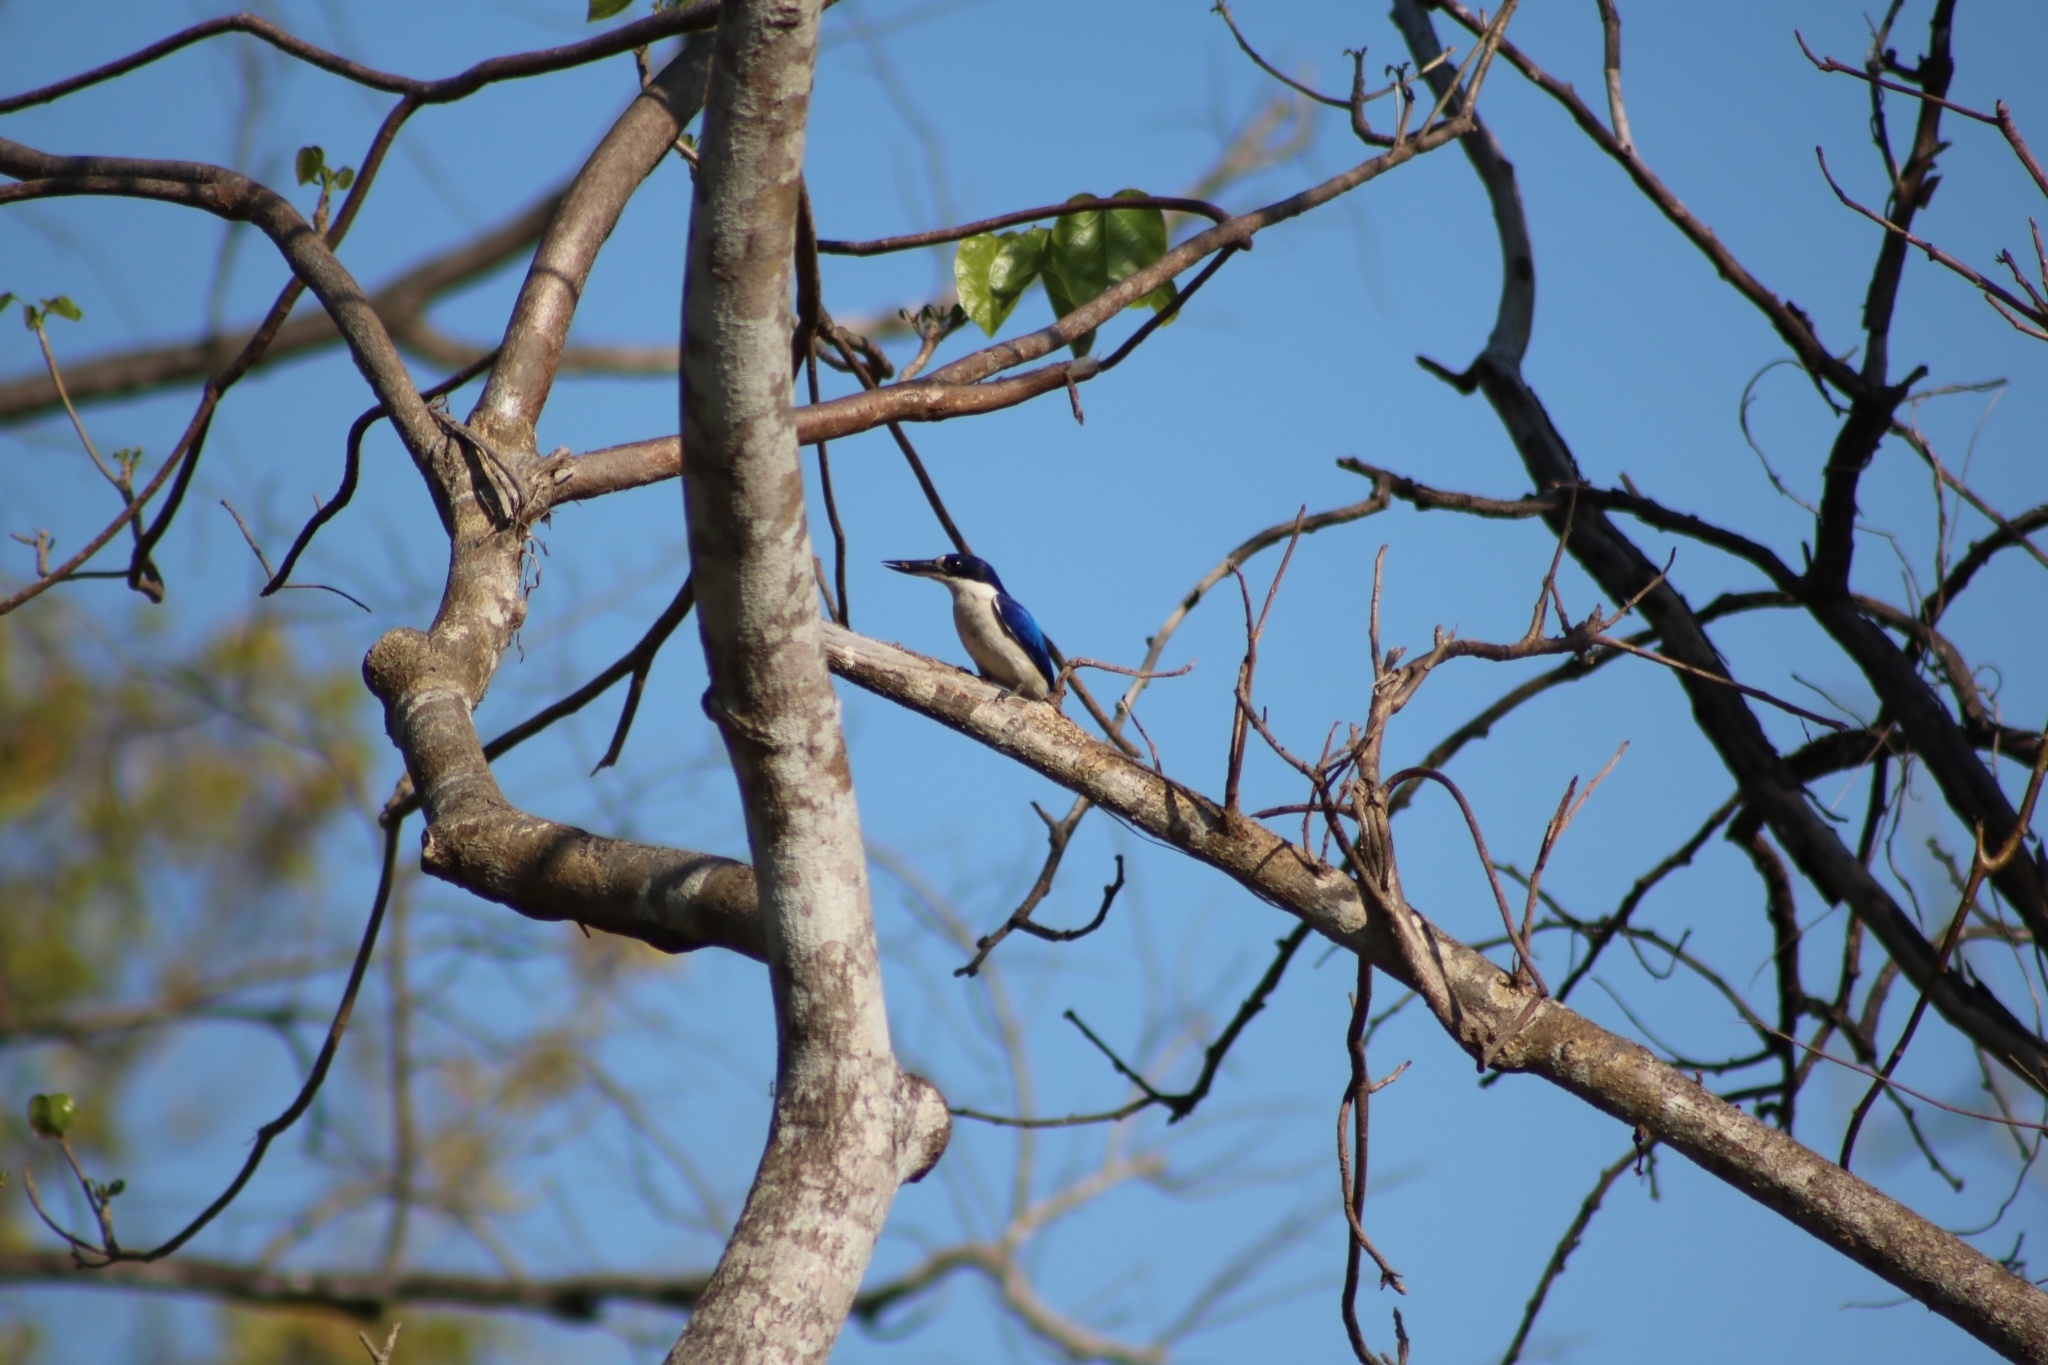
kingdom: Animalia
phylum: Chordata
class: Aves
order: Coraciiformes
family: Alcedinidae
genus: Todiramphus
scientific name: Todiramphus macleayii
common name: Forest kingfisher
